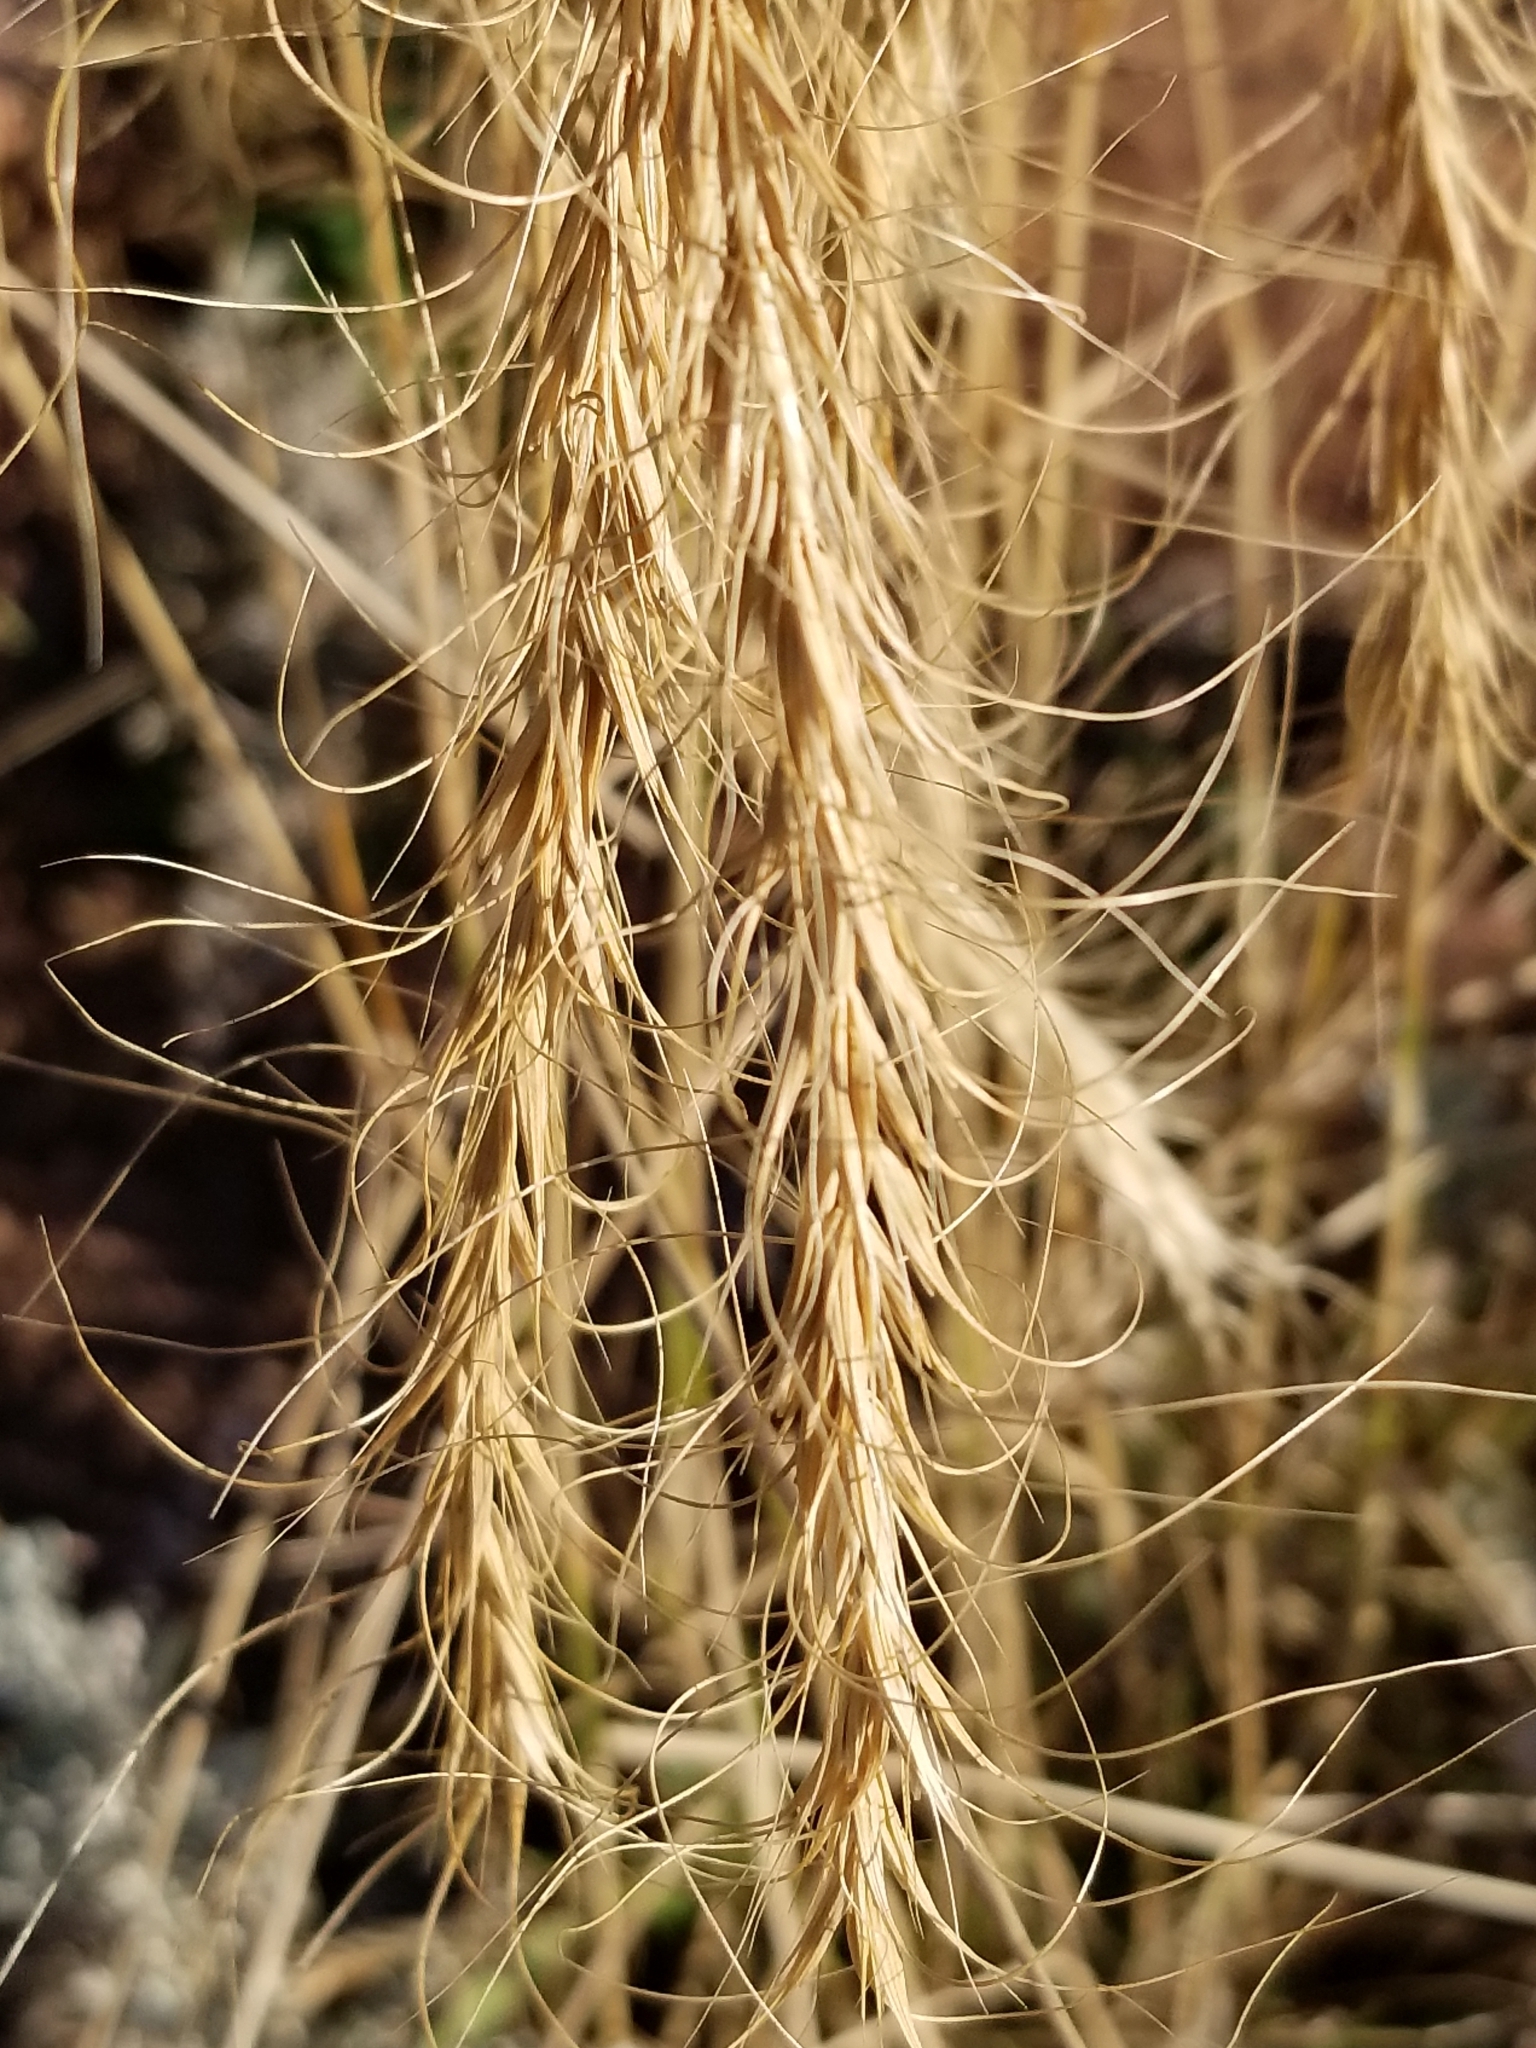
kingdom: Plantae
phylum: Tracheophyta
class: Liliopsida
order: Poales
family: Poaceae
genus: Elymus
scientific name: Elymus canadensis
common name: Canada wild rye
